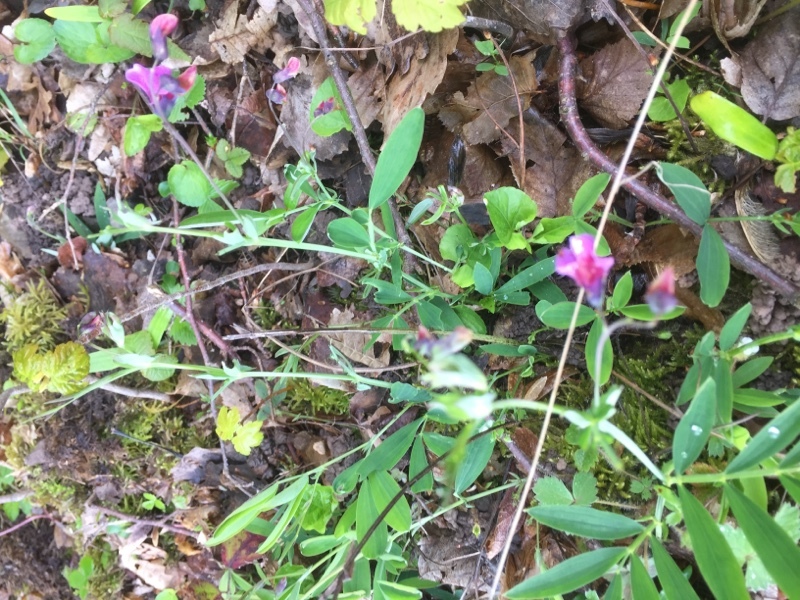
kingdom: Plantae
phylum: Tracheophyta
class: Magnoliopsida
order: Fabales
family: Fabaceae
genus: Lathyrus
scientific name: Lathyrus linifolius
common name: Bitter-vetch
